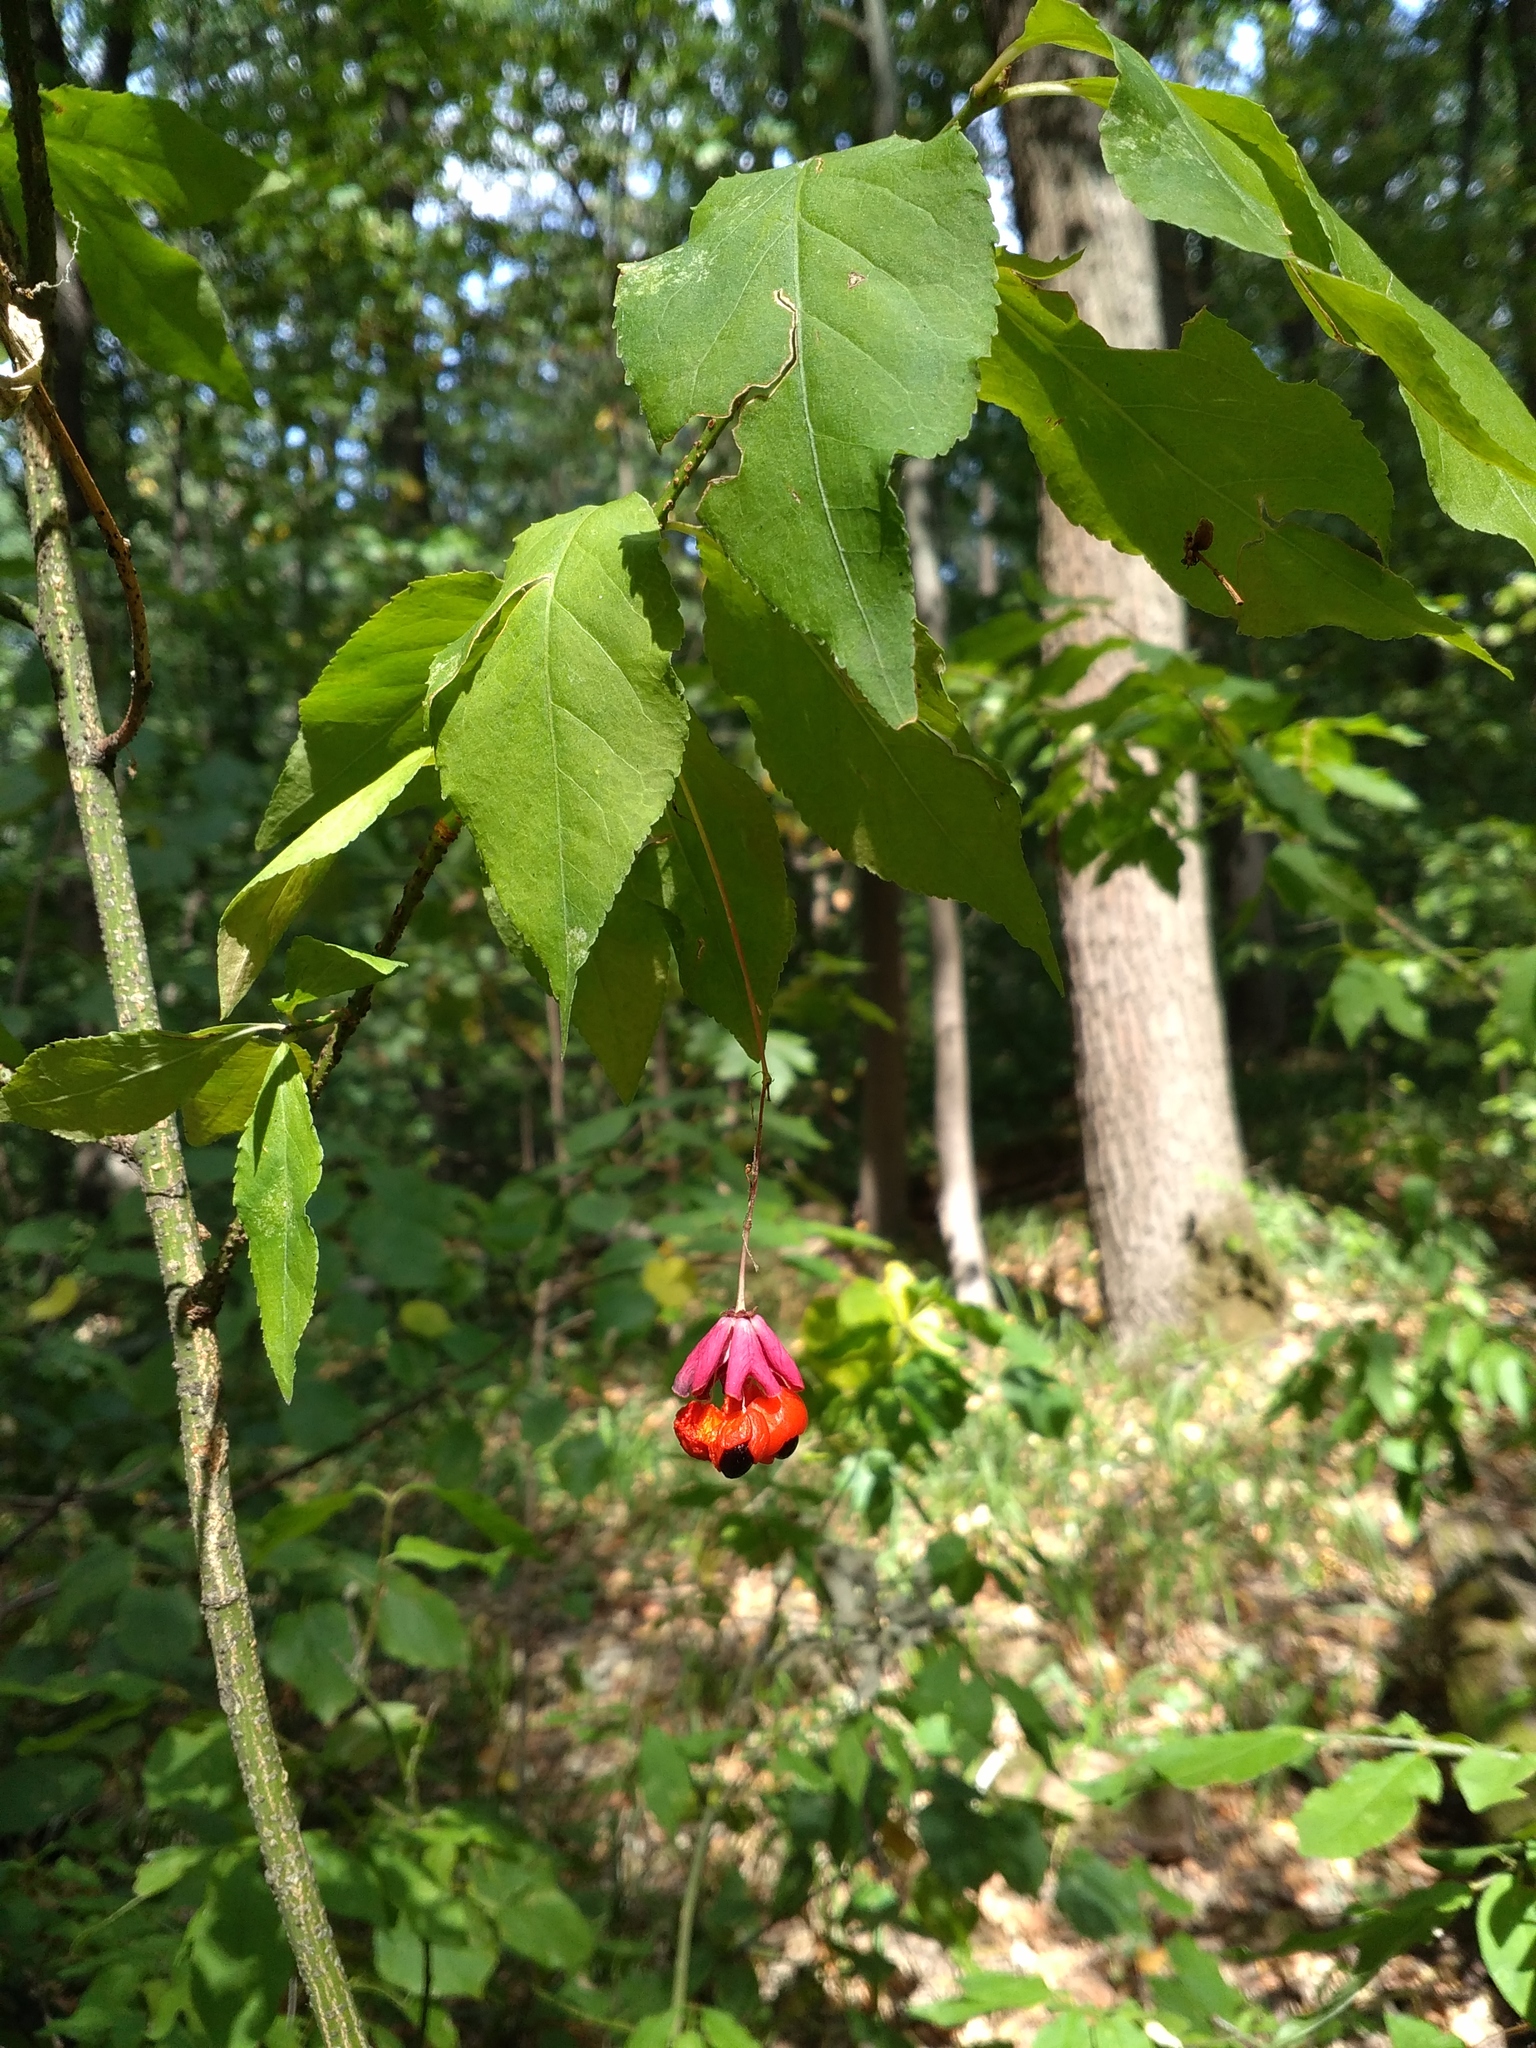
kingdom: Plantae
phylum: Tracheophyta
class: Magnoliopsida
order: Celastrales
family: Celastraceae
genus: Euonymus
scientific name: Euonymus verrucosus
